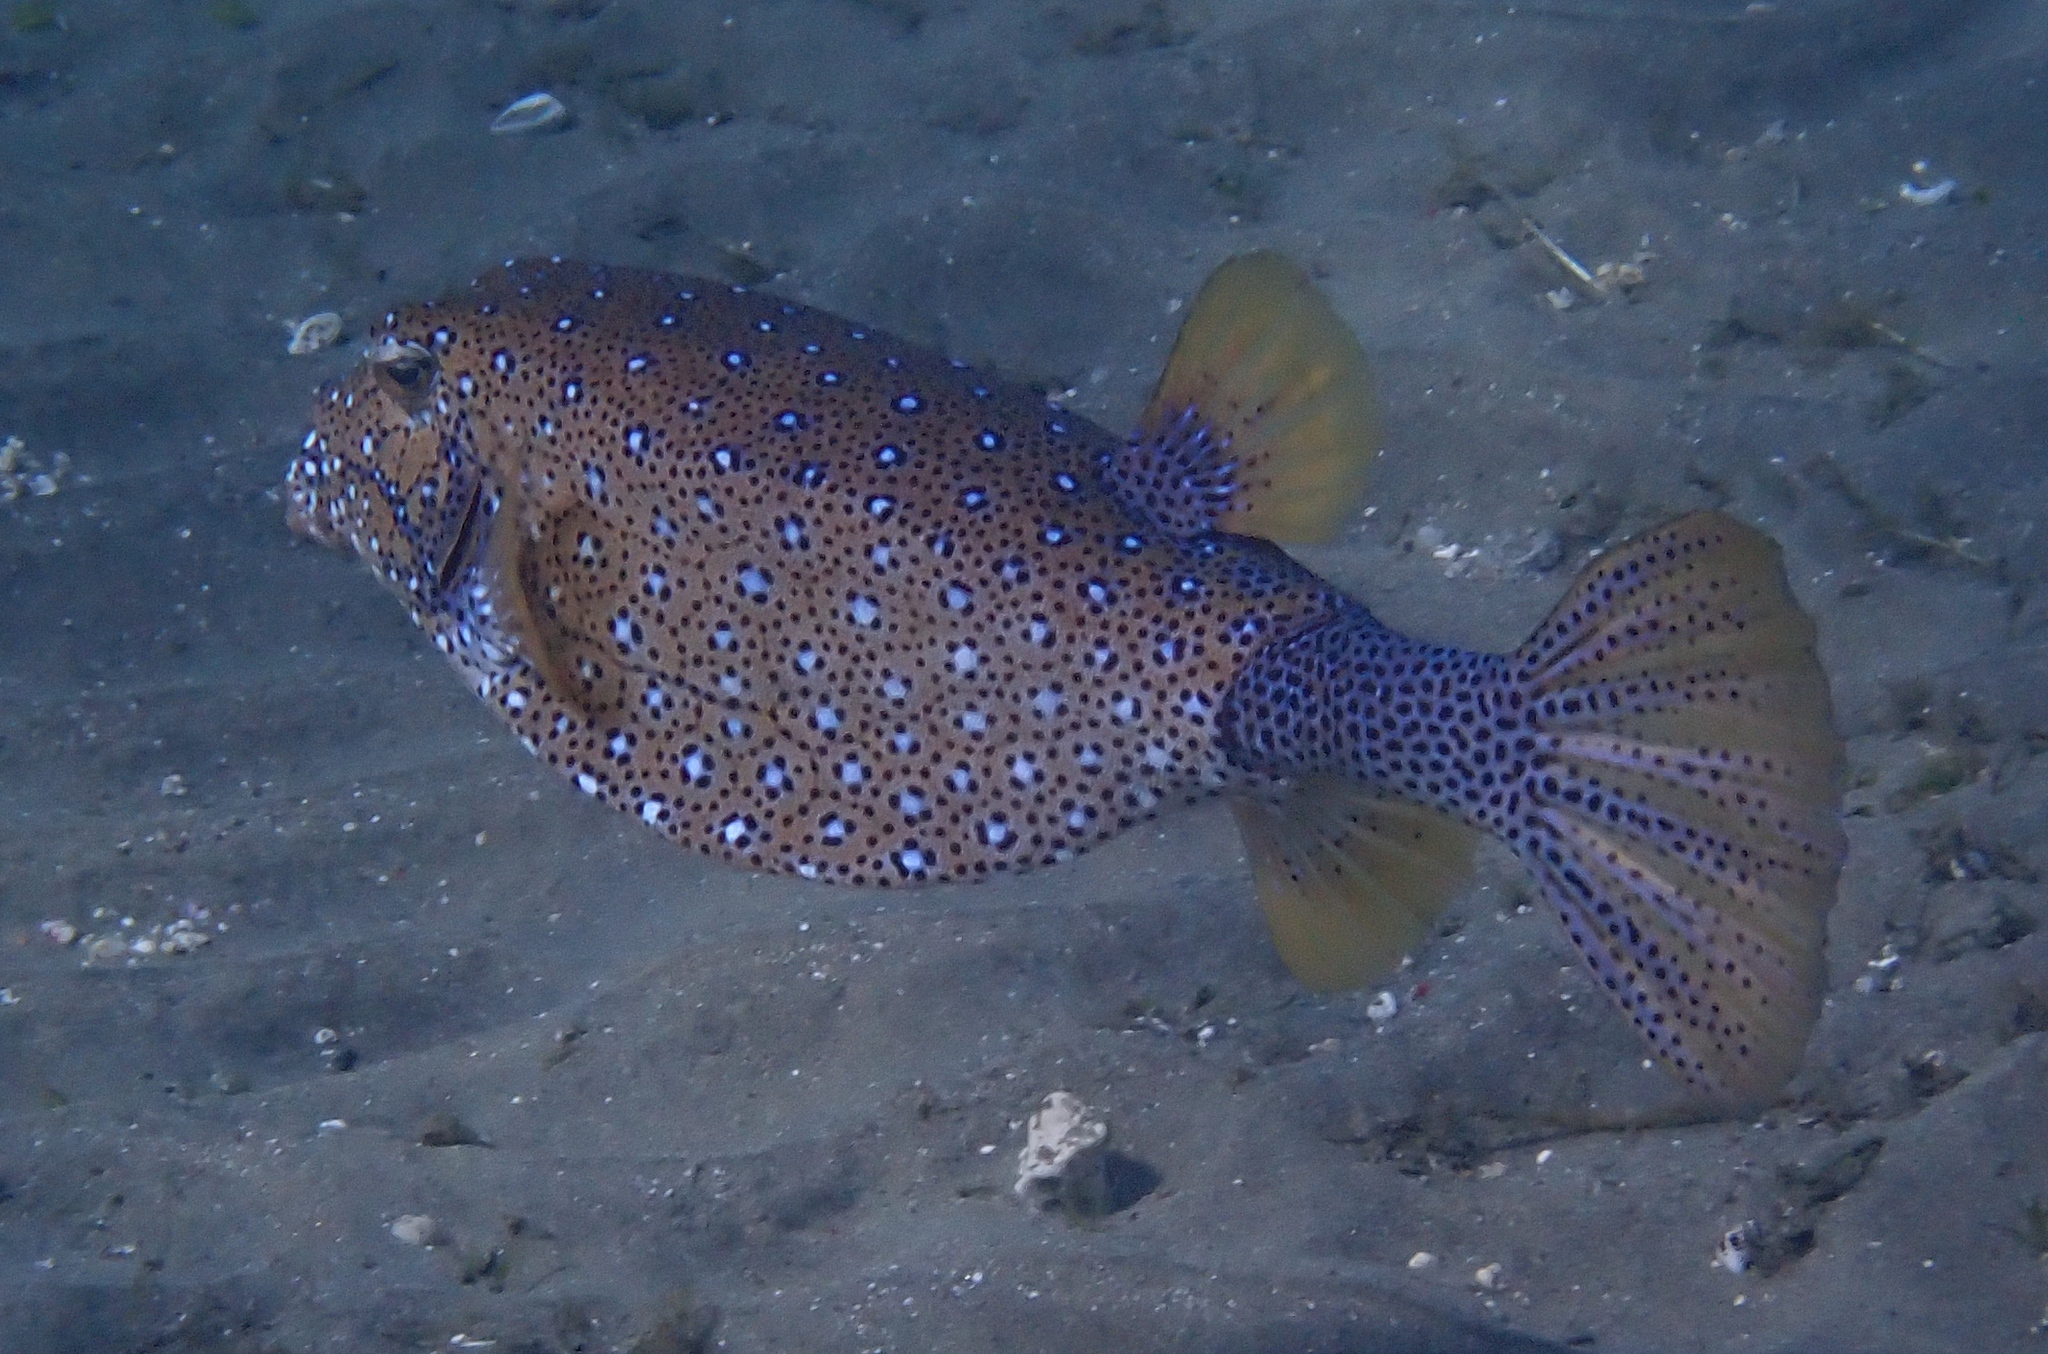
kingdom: Animalia
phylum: Chordata
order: Tetraodontiformes
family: Ostraciidae
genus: Ostracion
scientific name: Ostracion cubicus
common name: Cube trunkfish
